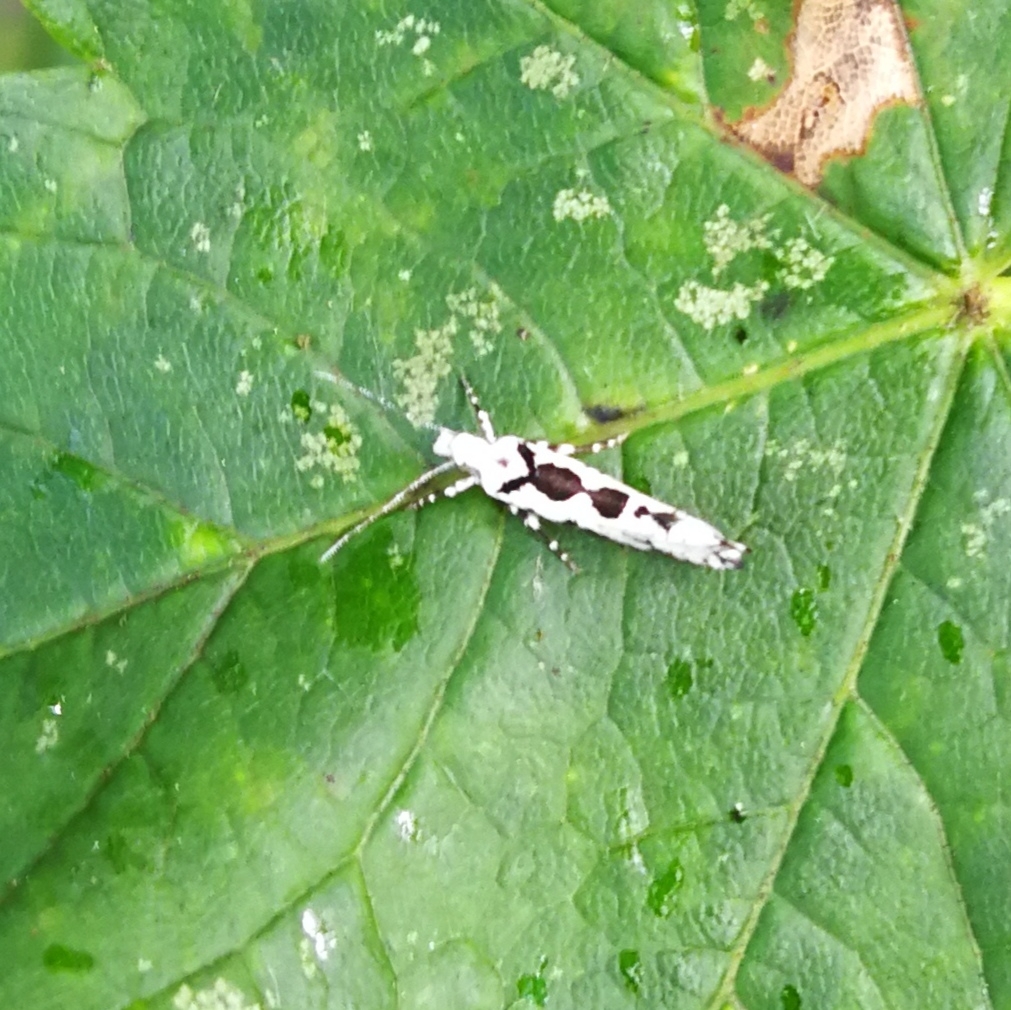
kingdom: Animalia
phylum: Arthropoda
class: Insecta
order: Lepidoptera
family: Plutellidae
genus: Ypsolophus
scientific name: Ypsolophus sequella
